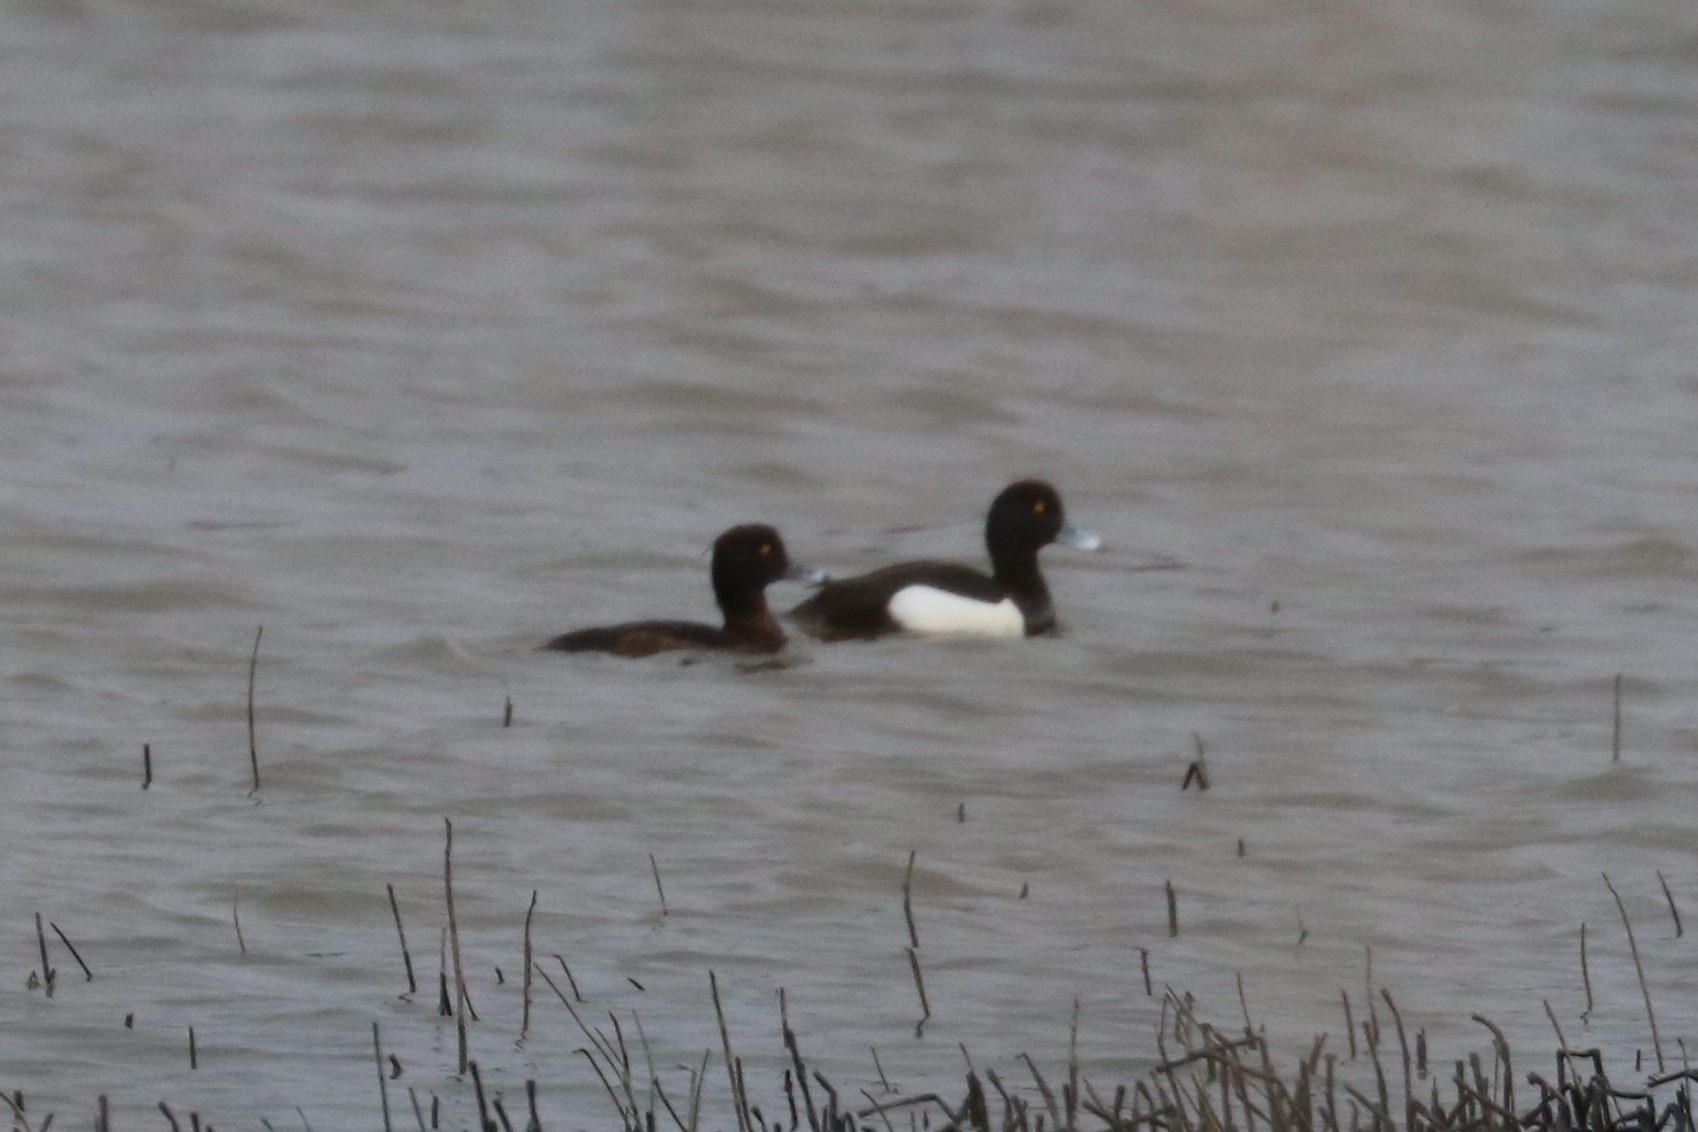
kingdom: Animalia
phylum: Chordata
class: Aves
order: Anseriformes
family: Anatidae
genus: Aythya
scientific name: Aythya fuligula
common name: Tufted duck
